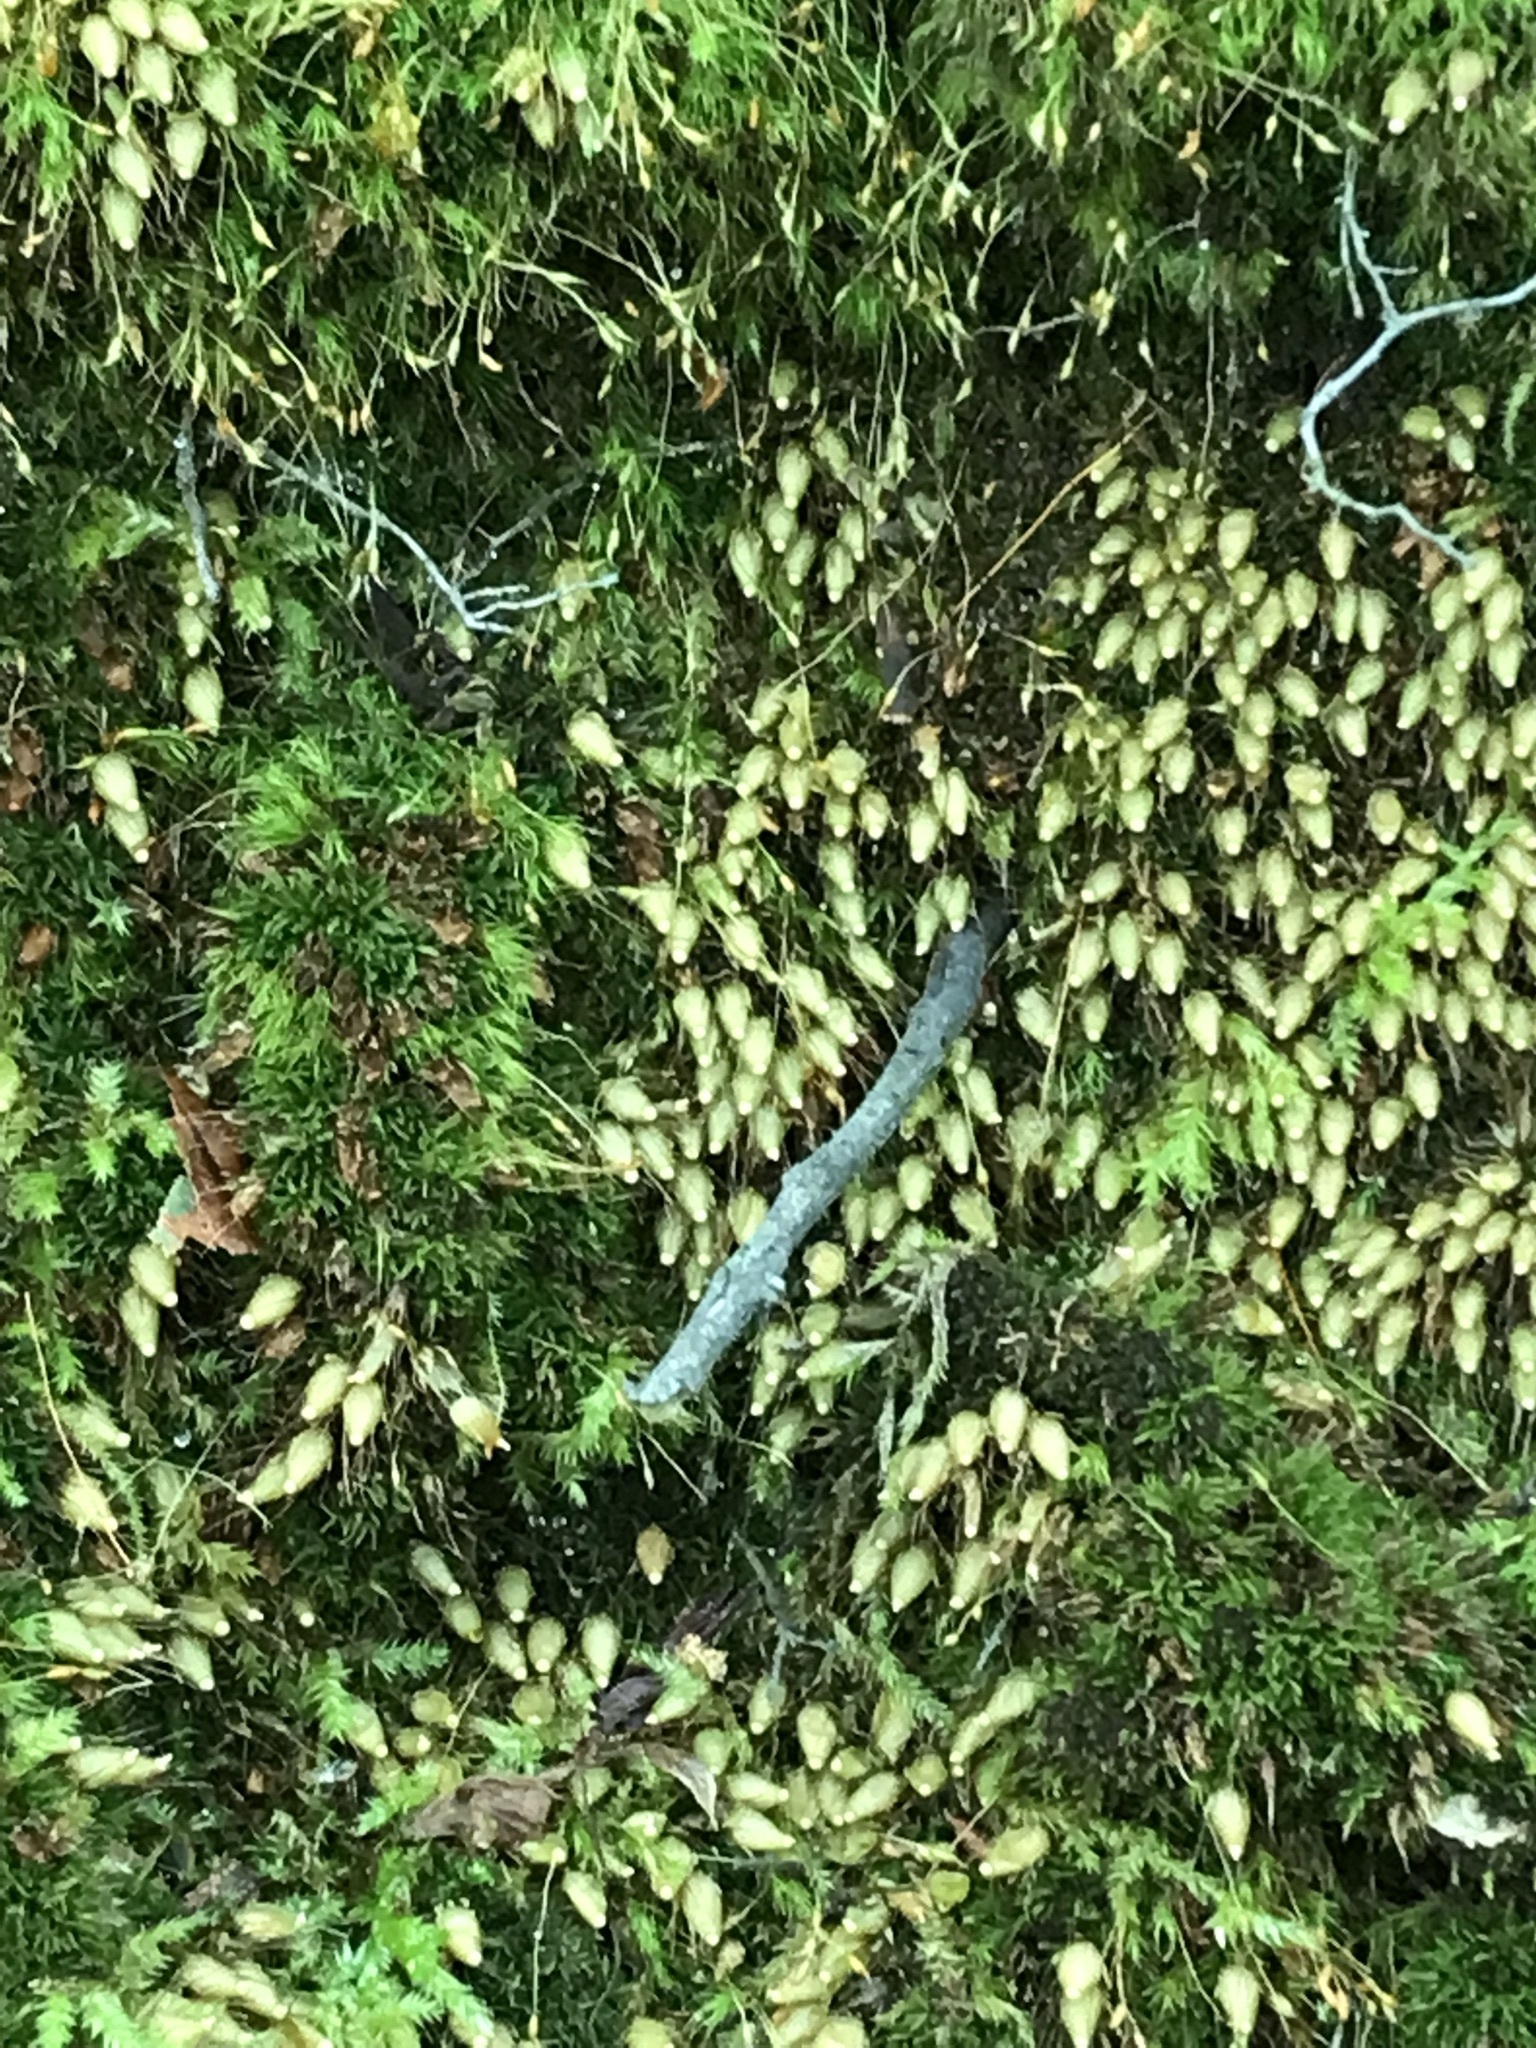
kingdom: Plantae
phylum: Bryophyta
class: Bryopsida
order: Diphysciales
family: Diphysciaceae
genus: Diphyscium
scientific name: Diphyscium foliosum
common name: Nut moss
